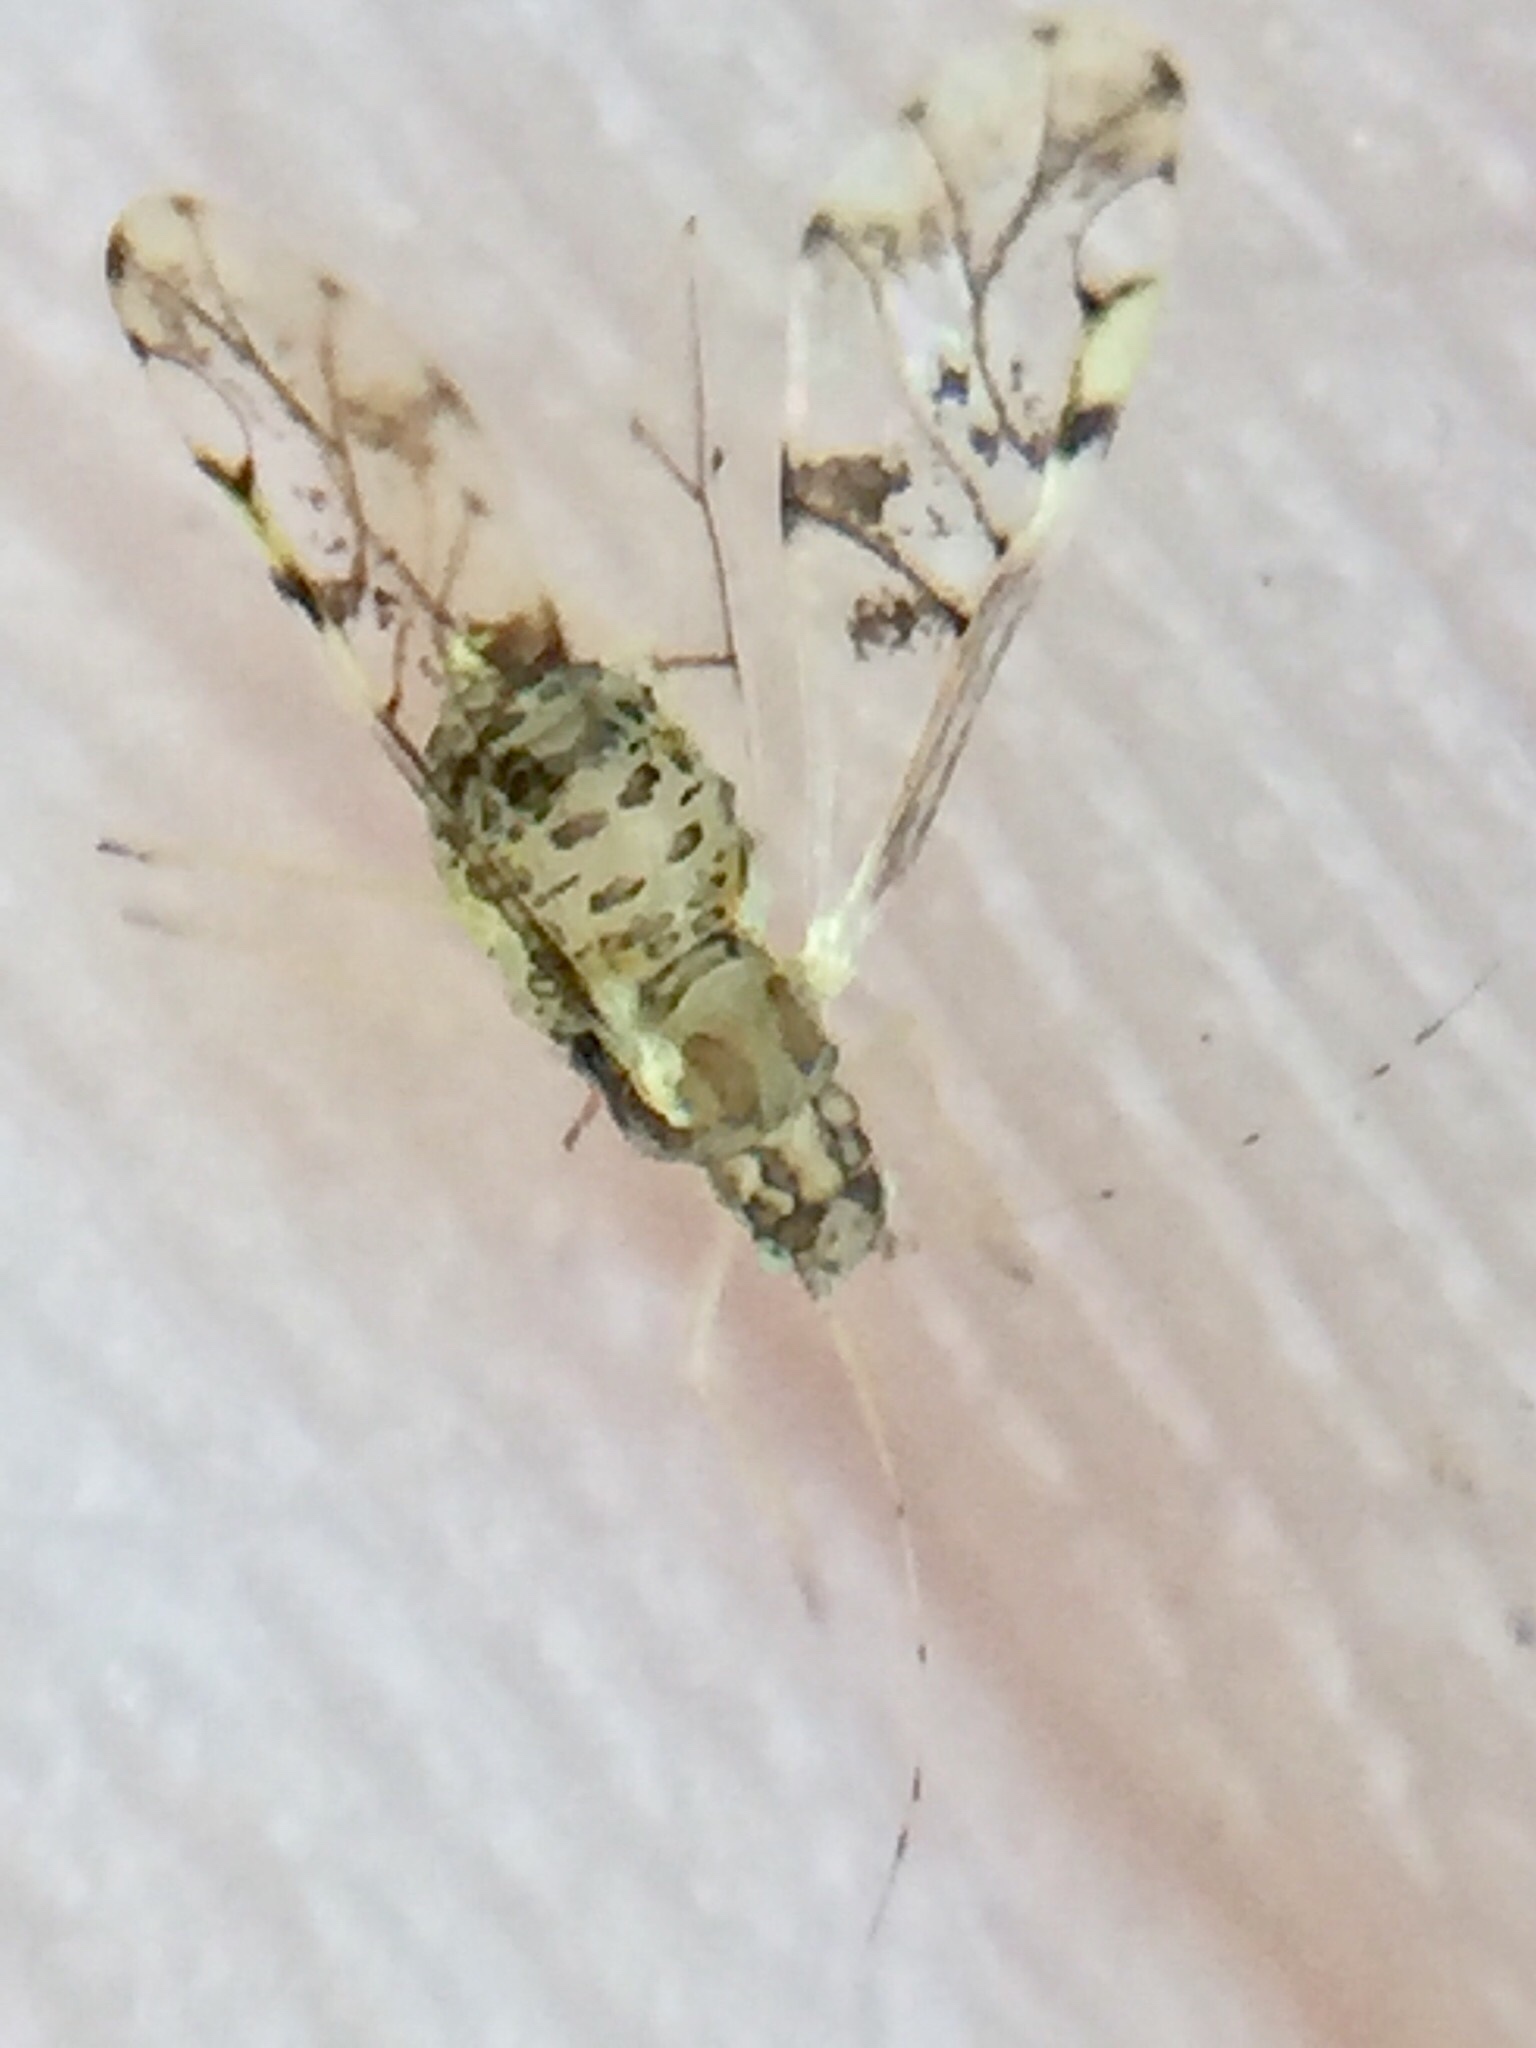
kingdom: Animalia
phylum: Arthropoda
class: Insecta
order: Hemiptera
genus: Neomyzocallis
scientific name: Neomyzocallis
